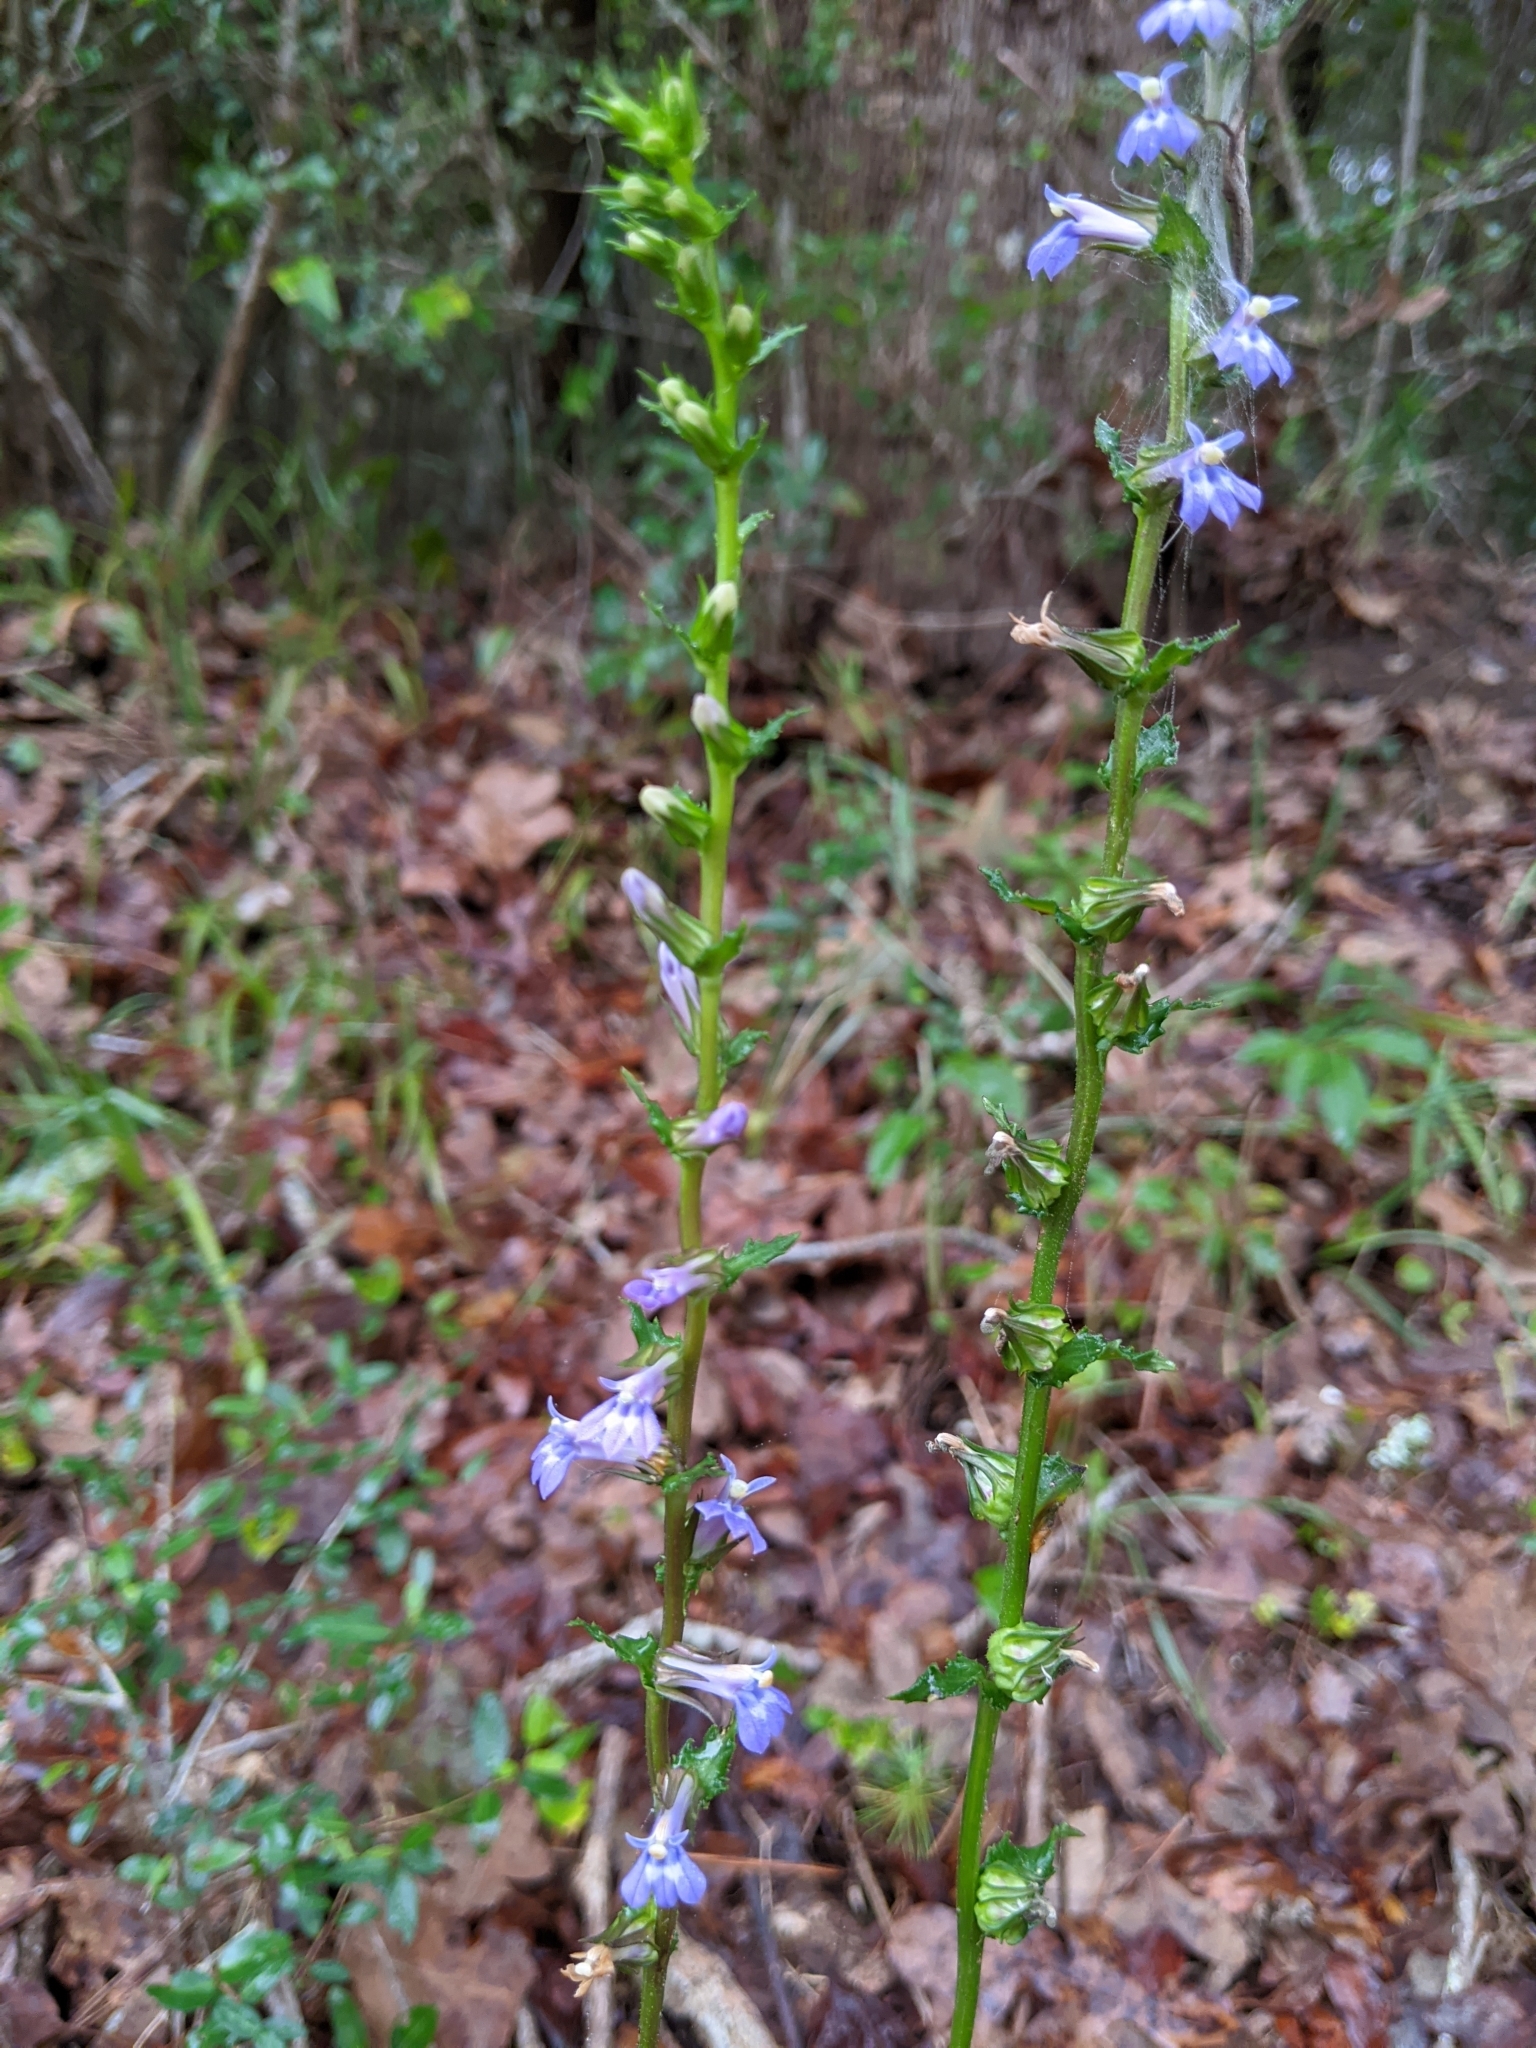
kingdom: Plantae
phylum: Tracheophyta
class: Magnoliopsida
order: Asterales
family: Campanulaceae
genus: Lobelia
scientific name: Lobelia puberula
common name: Purple dewdrop
